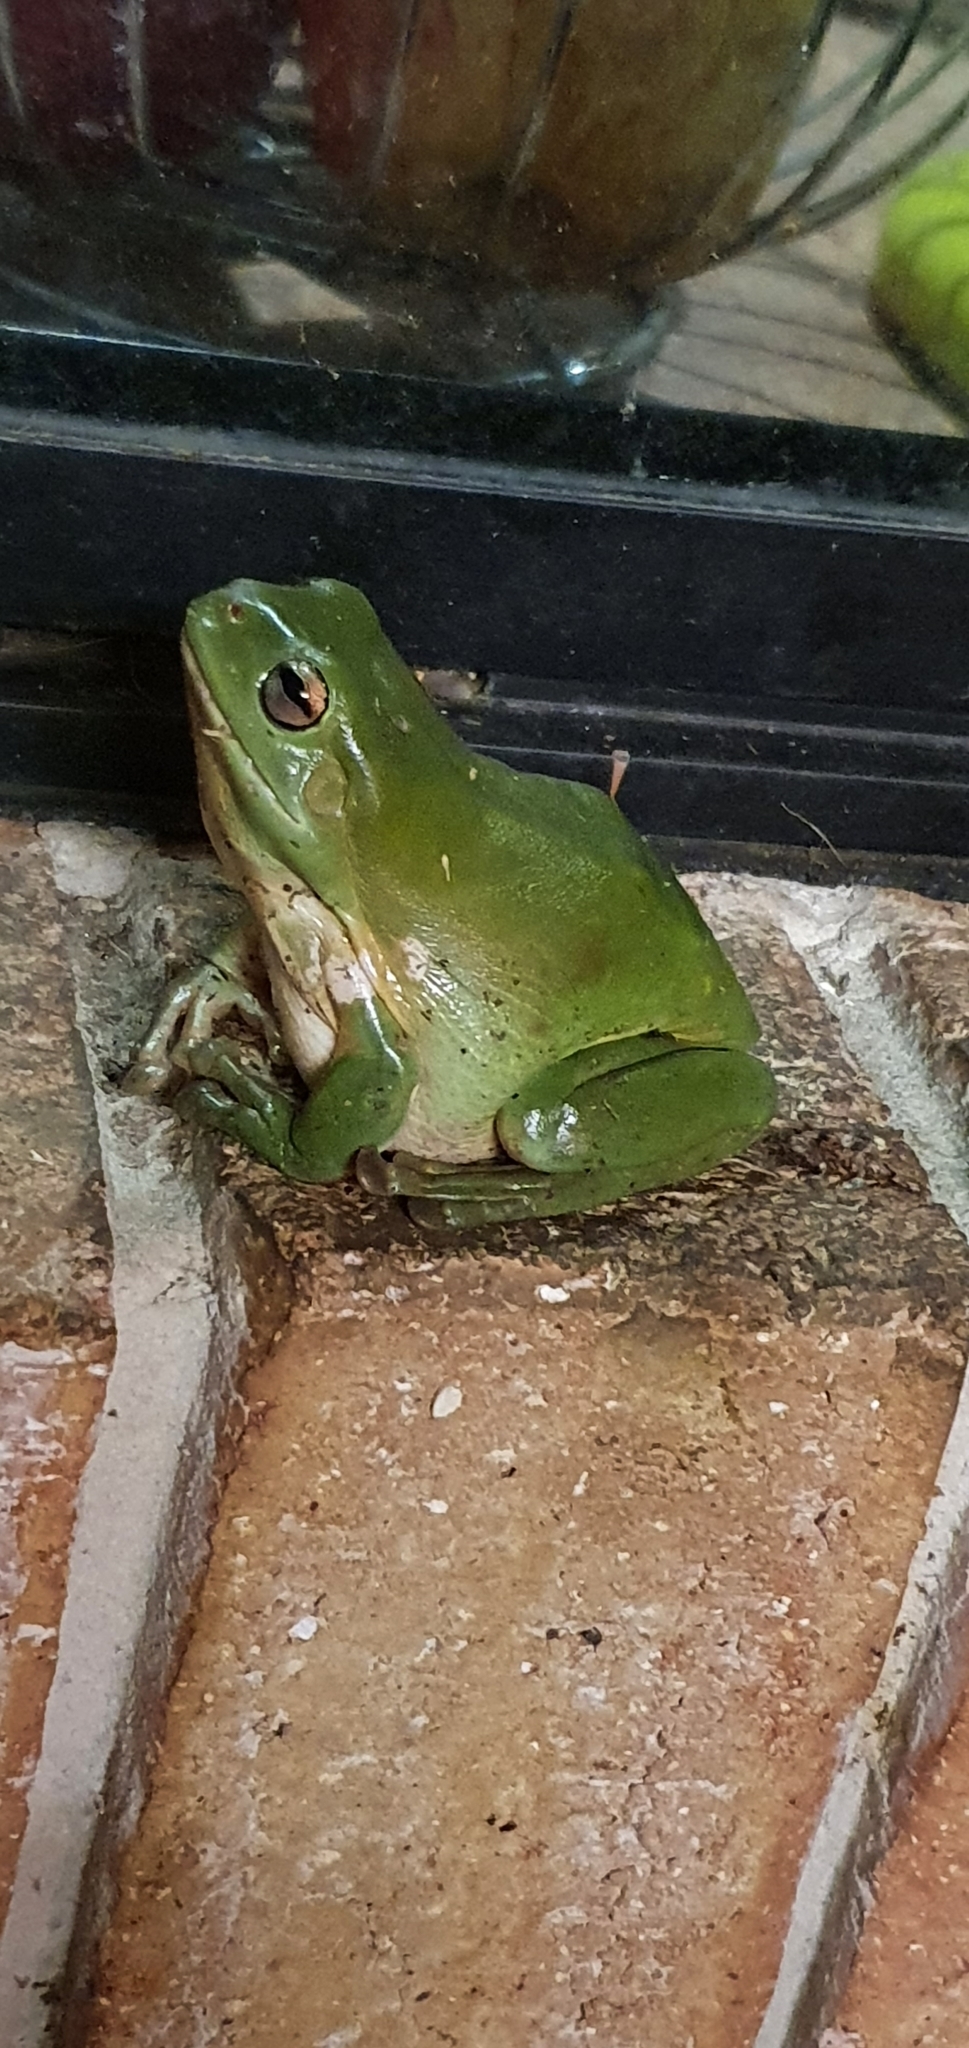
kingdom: Animalia
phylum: Chordata
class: Amphibia
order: Anura
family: Pelodryadidae
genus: Ranoidea
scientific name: Ranoidea caerulea
